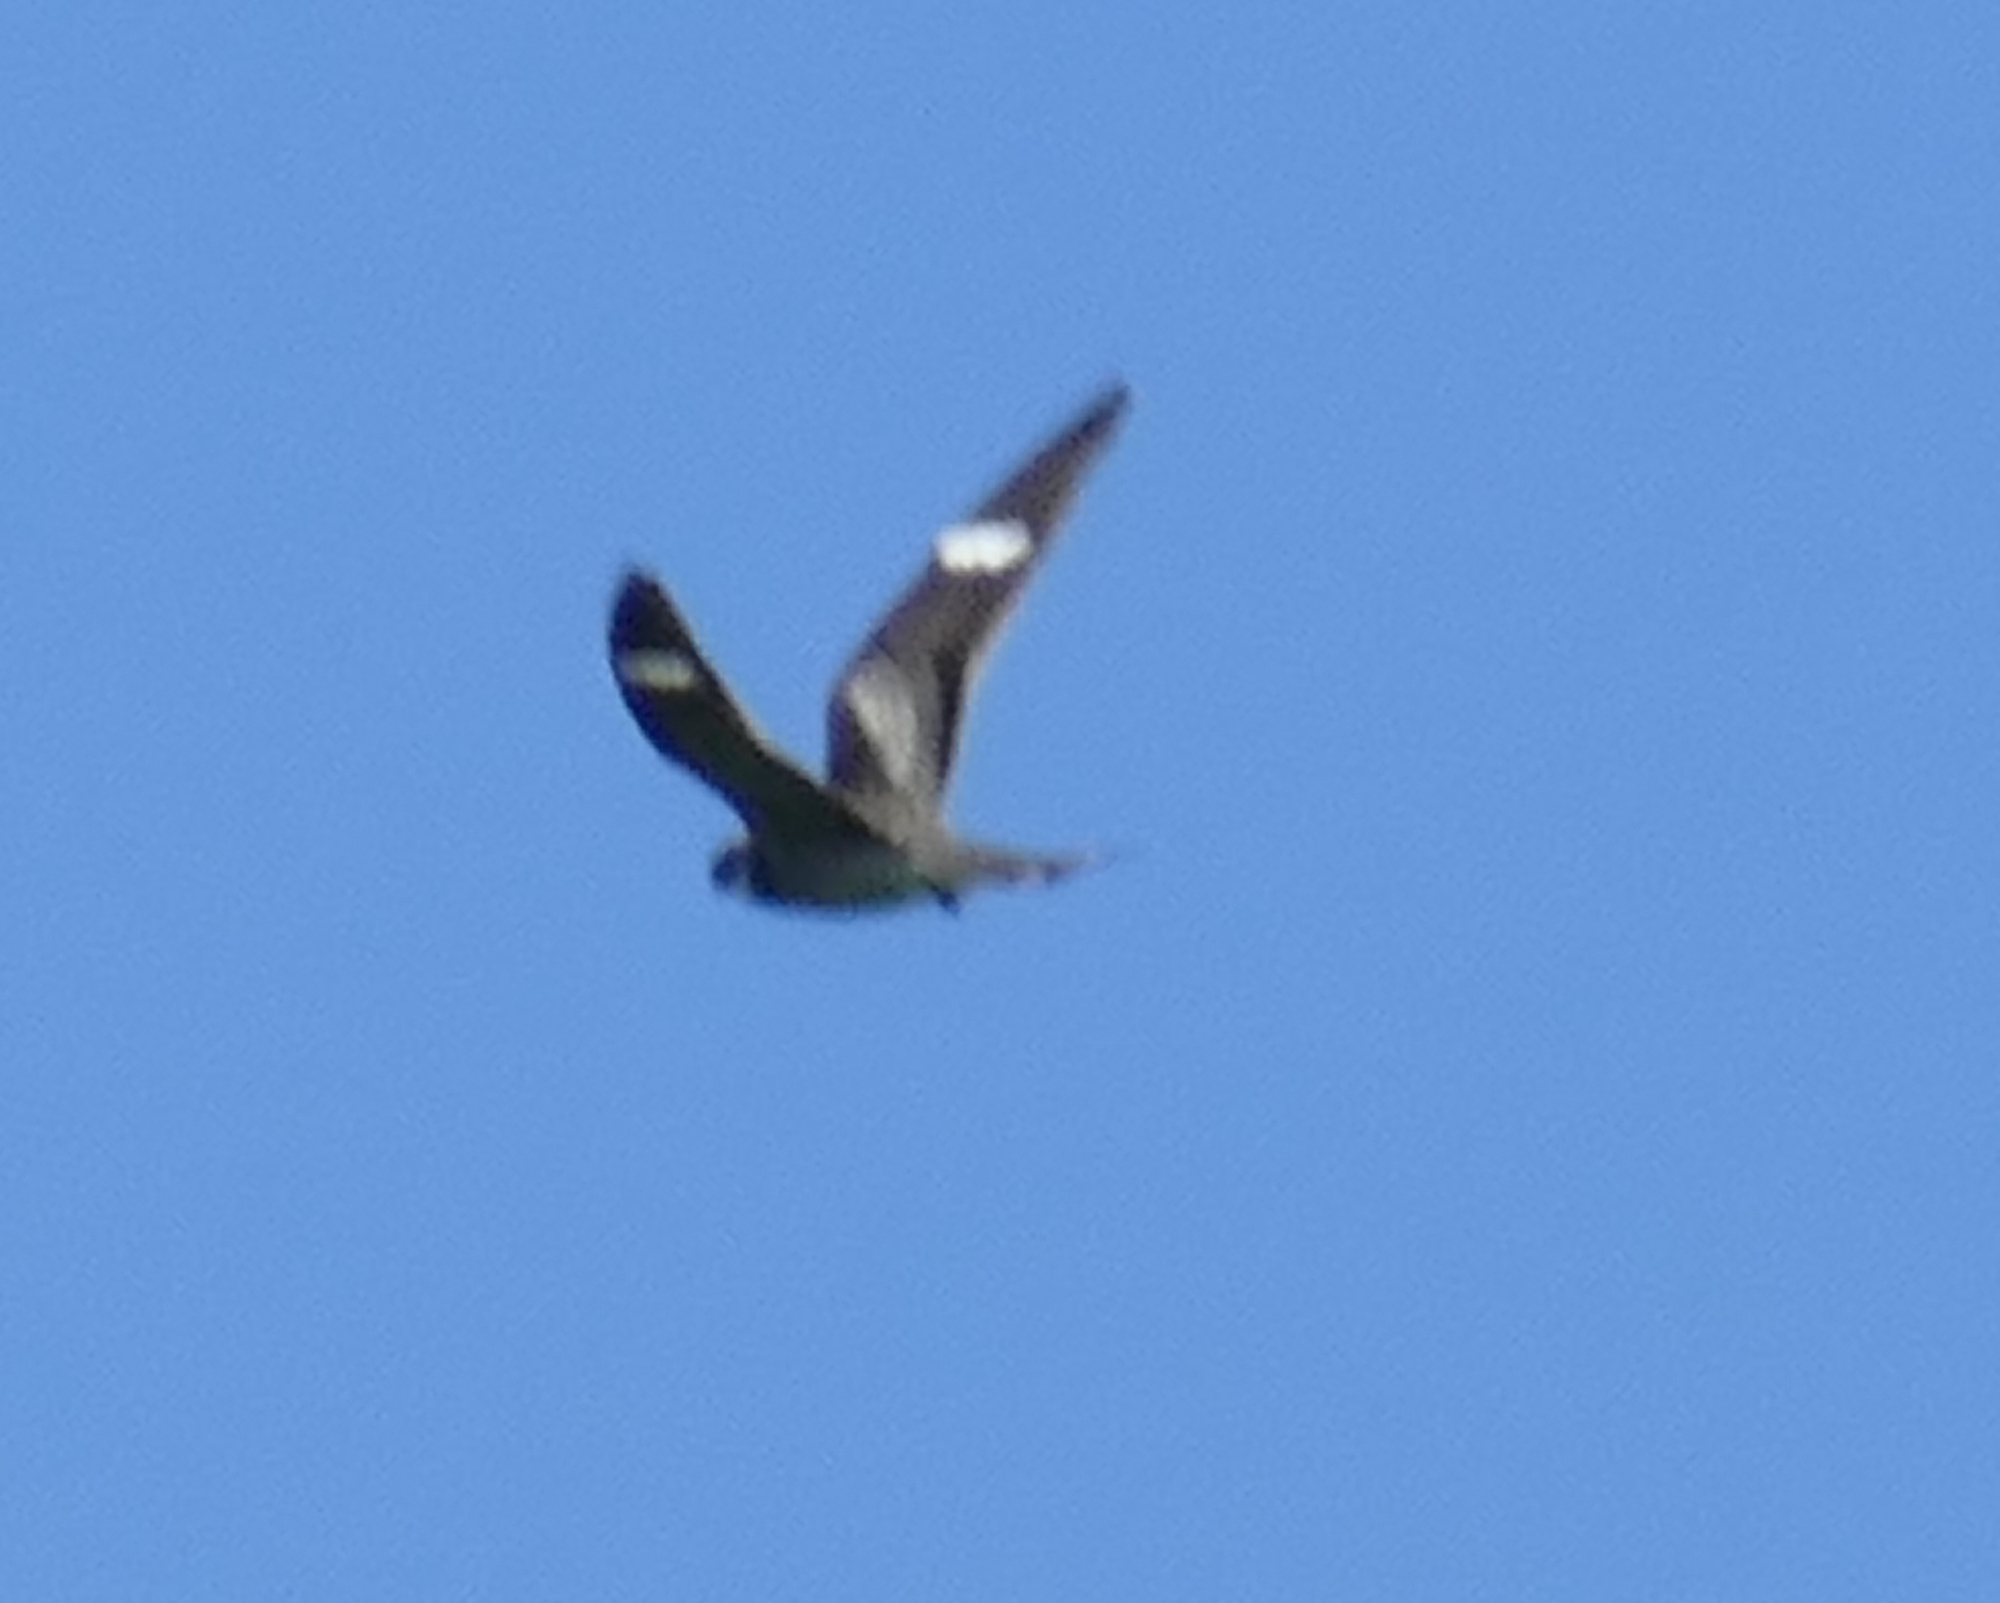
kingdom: Animalia
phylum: Chordata
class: Aves
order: Caprimulgiformes
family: Caprimulgidae
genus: Chordeiles
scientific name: Chordeiles minor
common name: Common nighthawk
